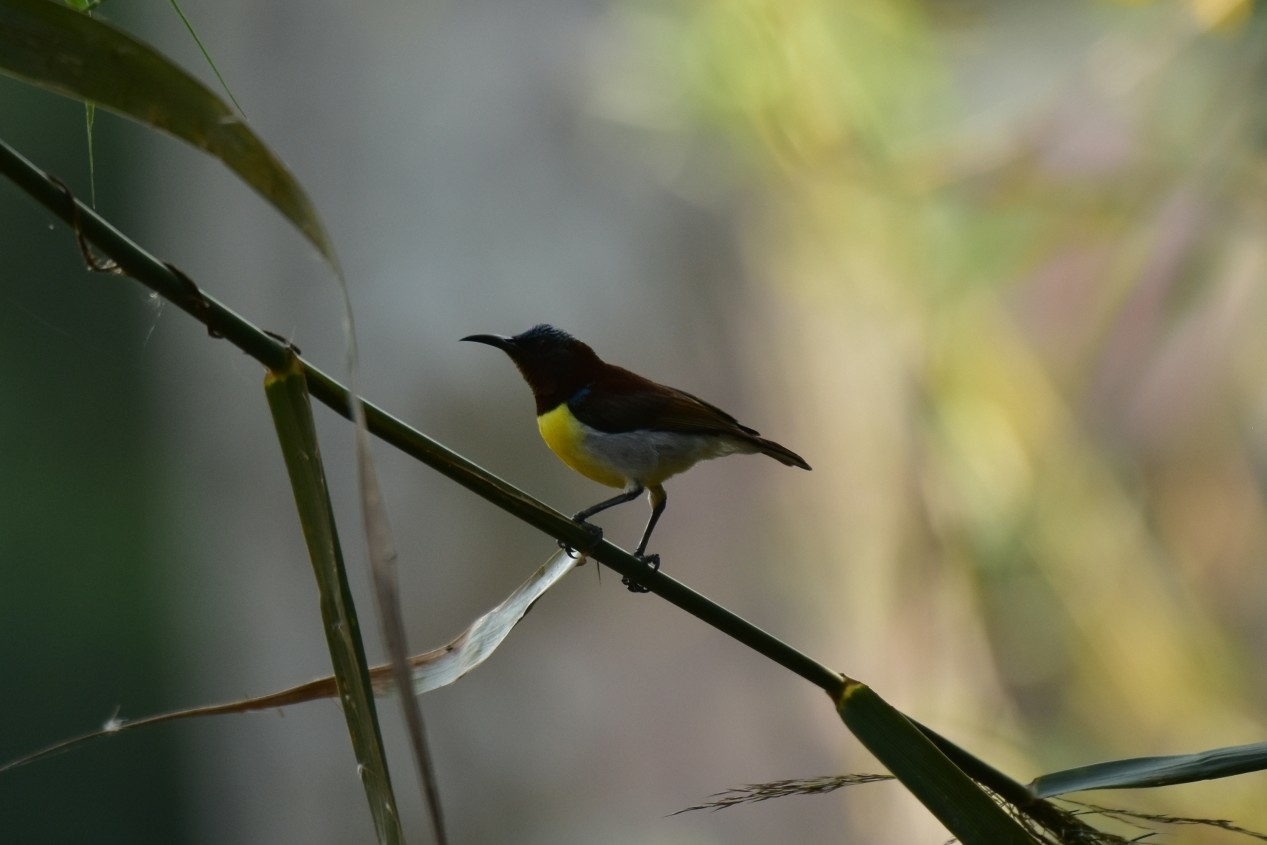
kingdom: Animalia
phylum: Chordata
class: Aves
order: Passeriformes
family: Nectariniidae
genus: Leptocoma
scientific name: Leptocoma zeylonica
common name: Purple-rumped sunbird
